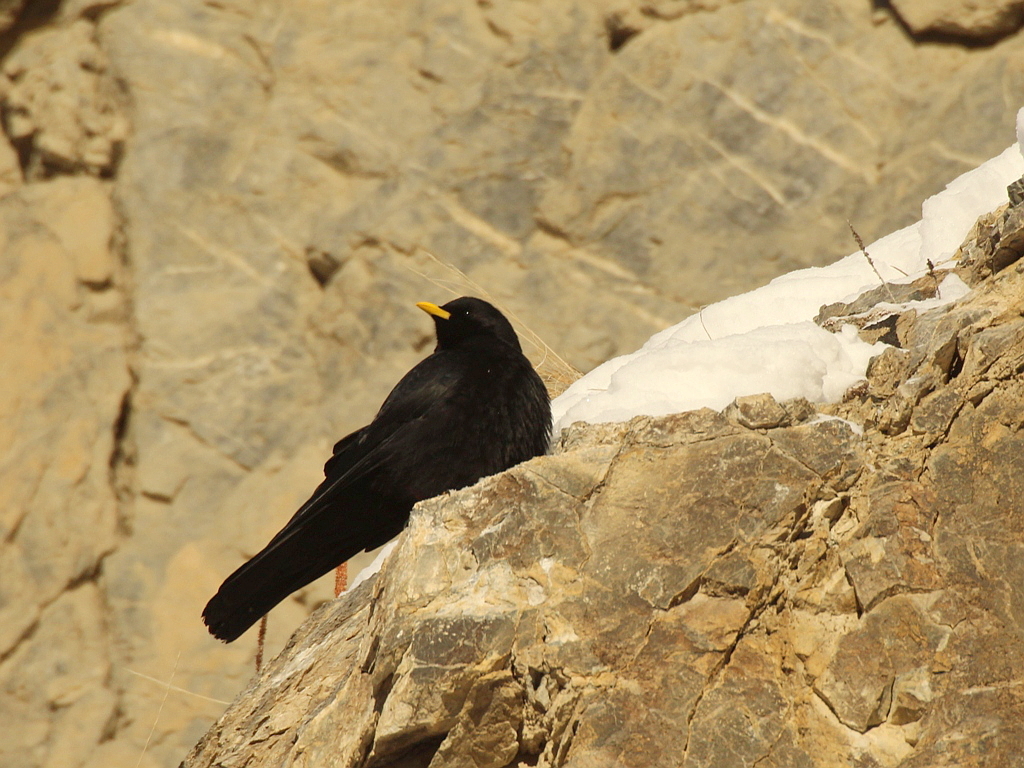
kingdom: Animalia
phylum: Chordata
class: Aves
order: Passeriformes
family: Corvidae
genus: Pyrrhocorax
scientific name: Pyrrhocorax graculus
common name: Alpine chough
